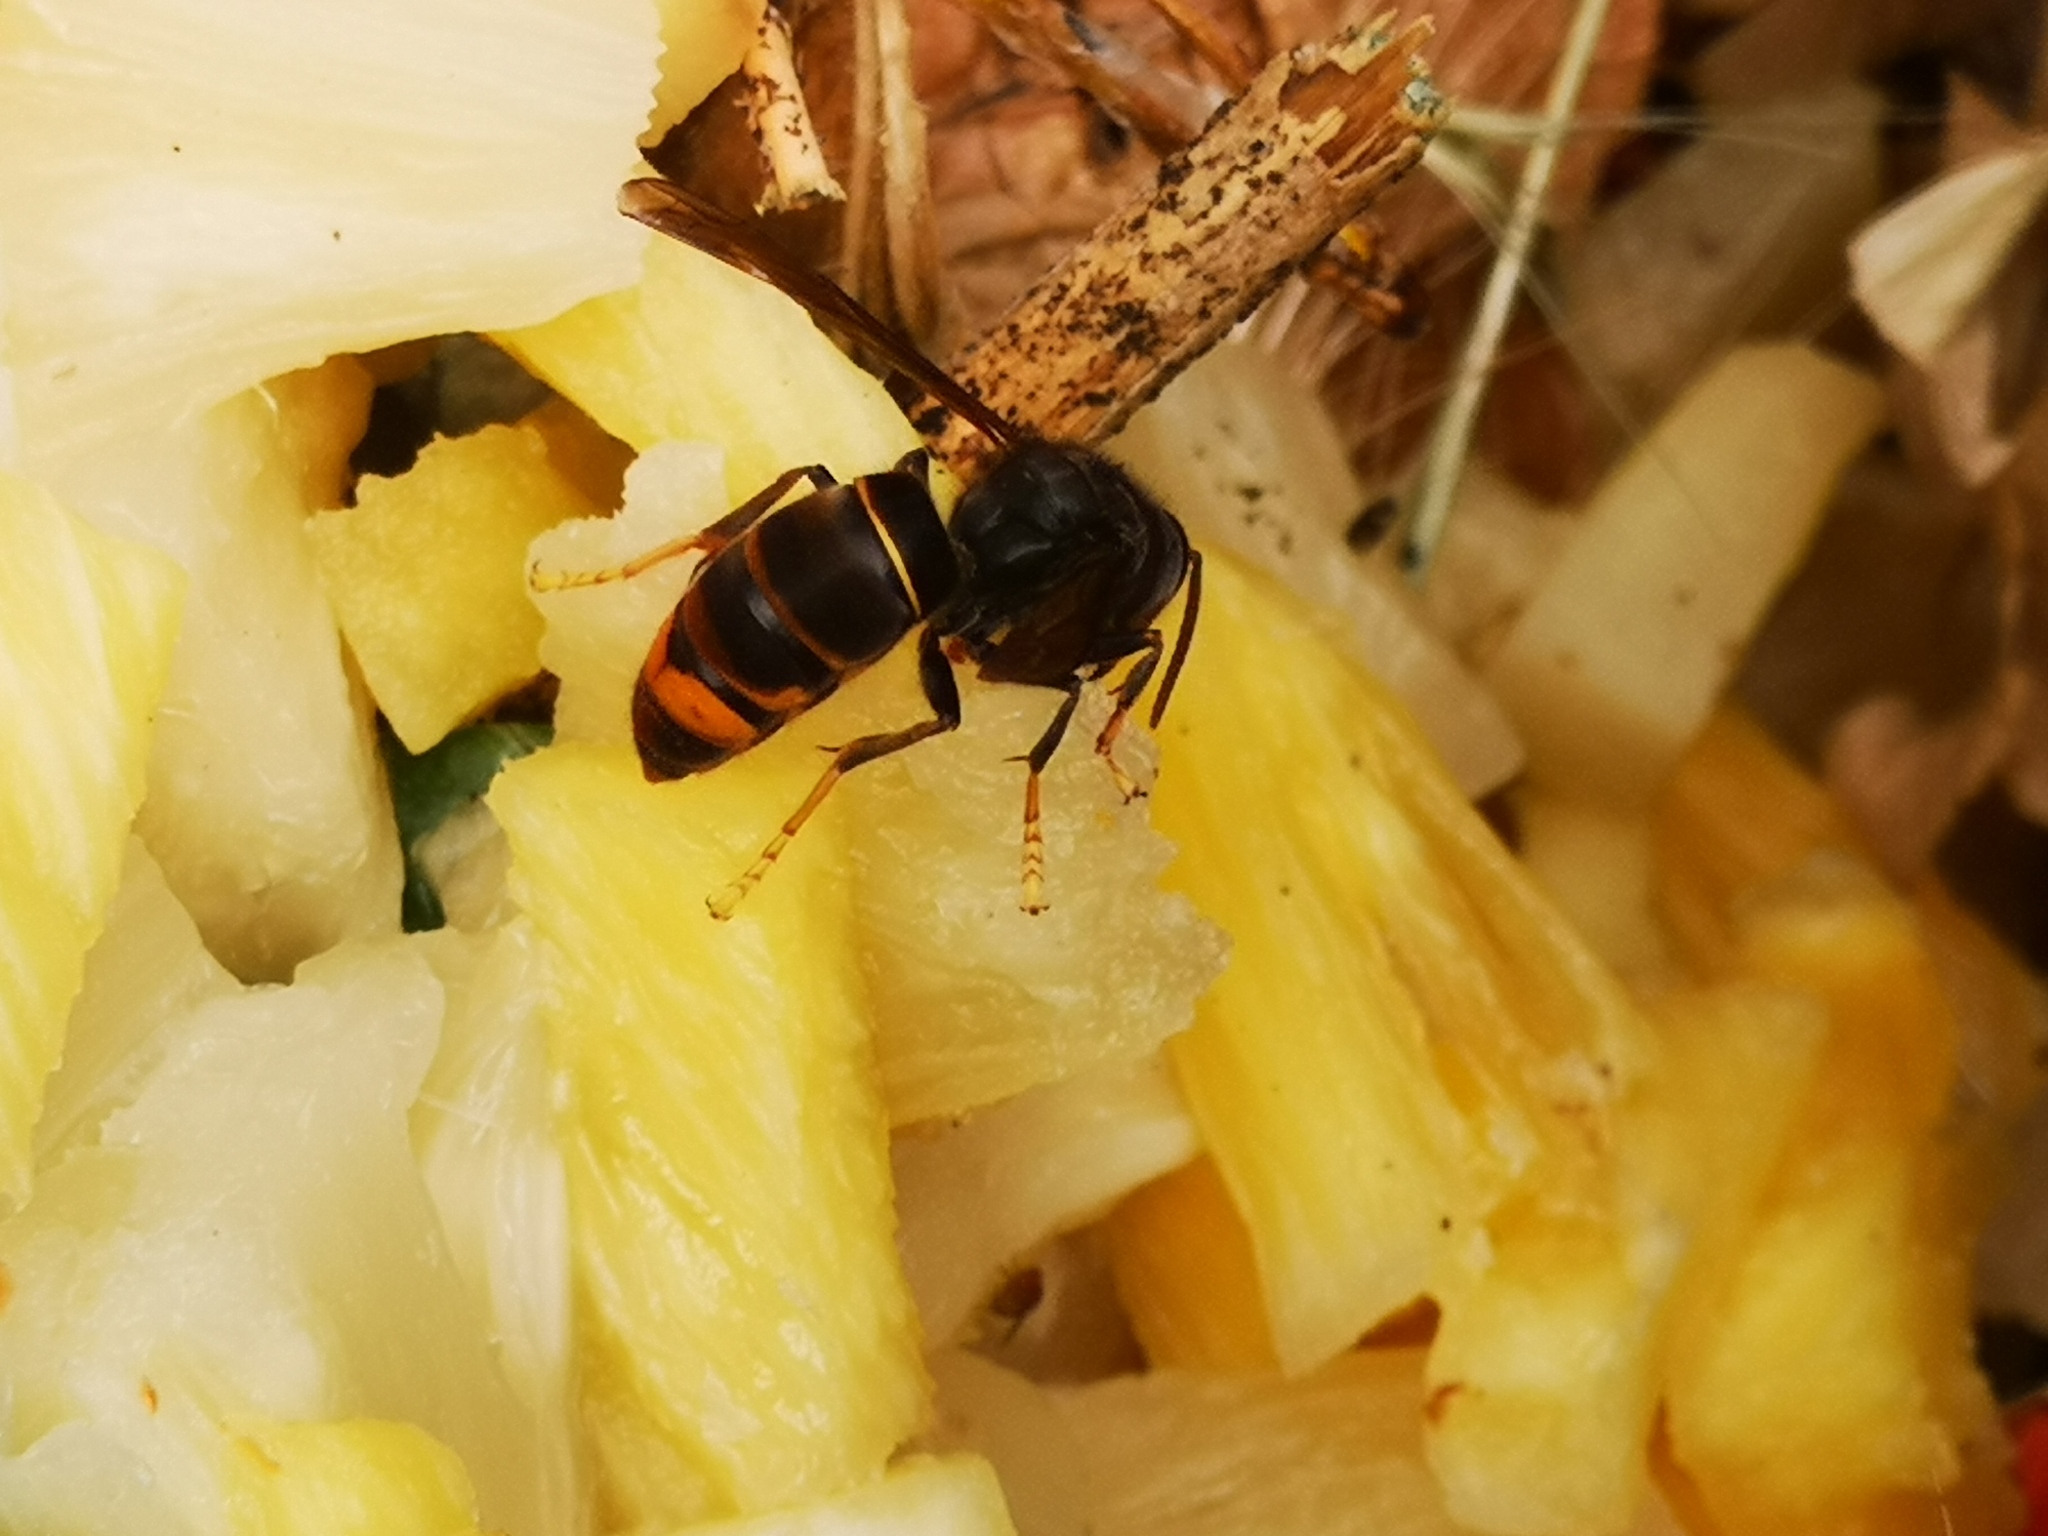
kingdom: Animalia
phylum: Arthropoda
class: Insecta
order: Hymenoptera
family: Vespidae
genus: Vespa
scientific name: Vespa velutina
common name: Asian hornet
